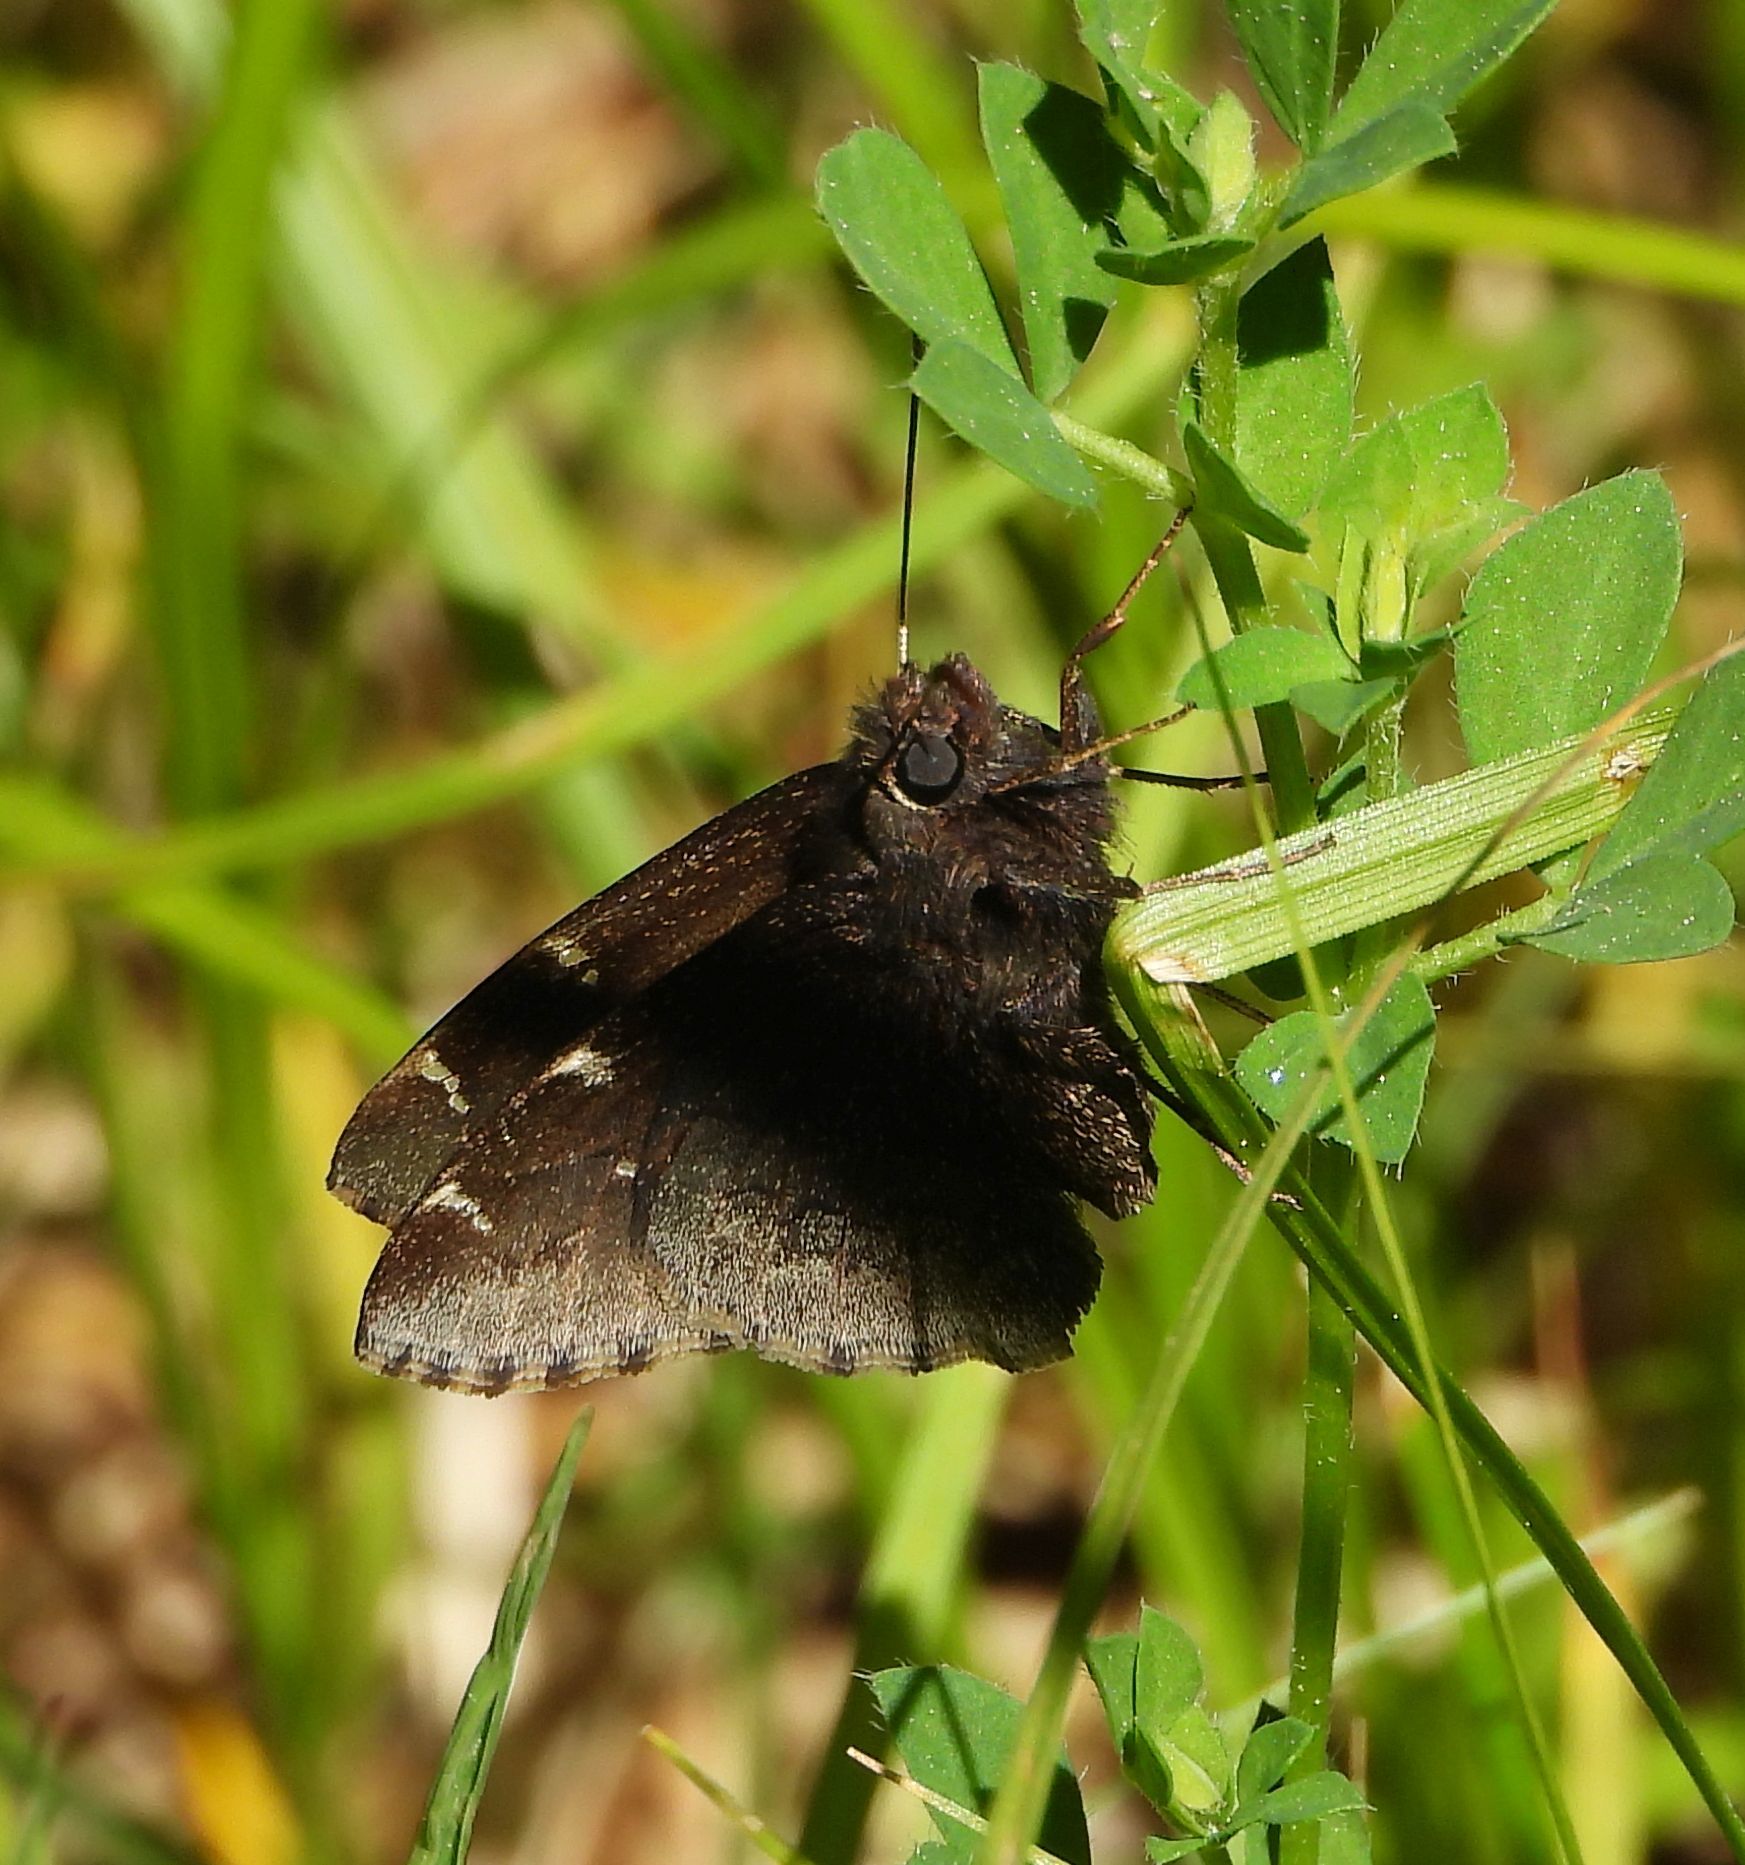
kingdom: Animalia
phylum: Arthropoda
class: Insecta
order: Lepidoptera
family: Hesperiidae
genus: Thorybes
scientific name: Thorybes pylades
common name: Northern cloudywing
